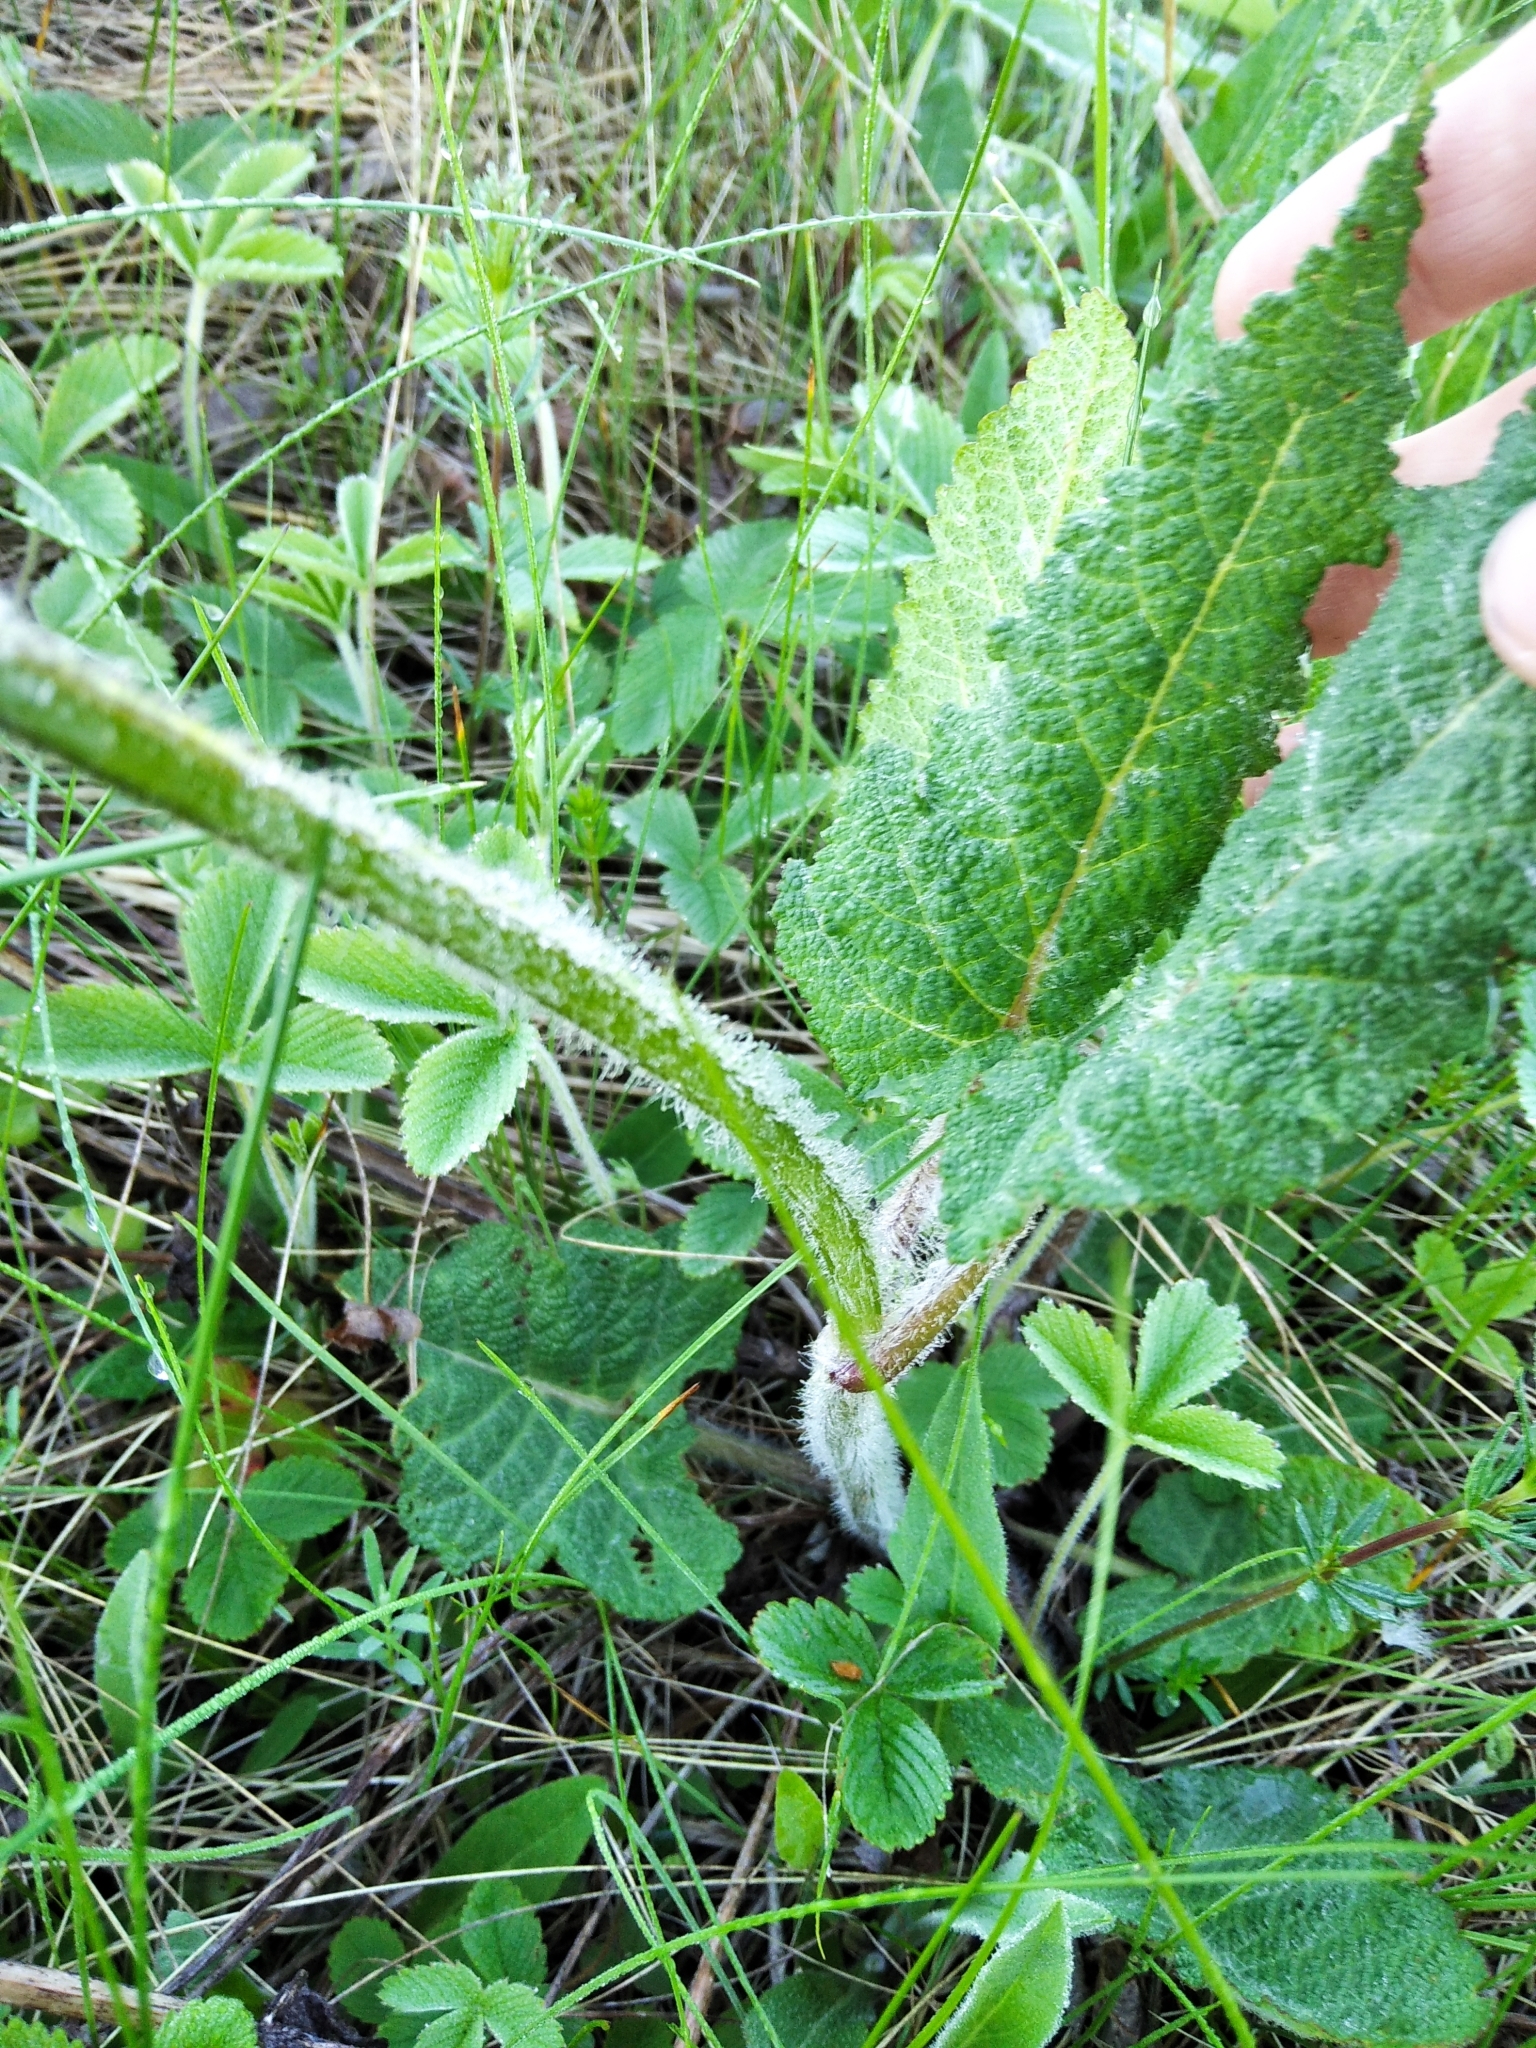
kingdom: Plantae
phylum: Tracheophyta
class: Magnoliopsida
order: Lamiales
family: Lamiaceae
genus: Salvia
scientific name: Salvia pratensis
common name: Meadow sage
